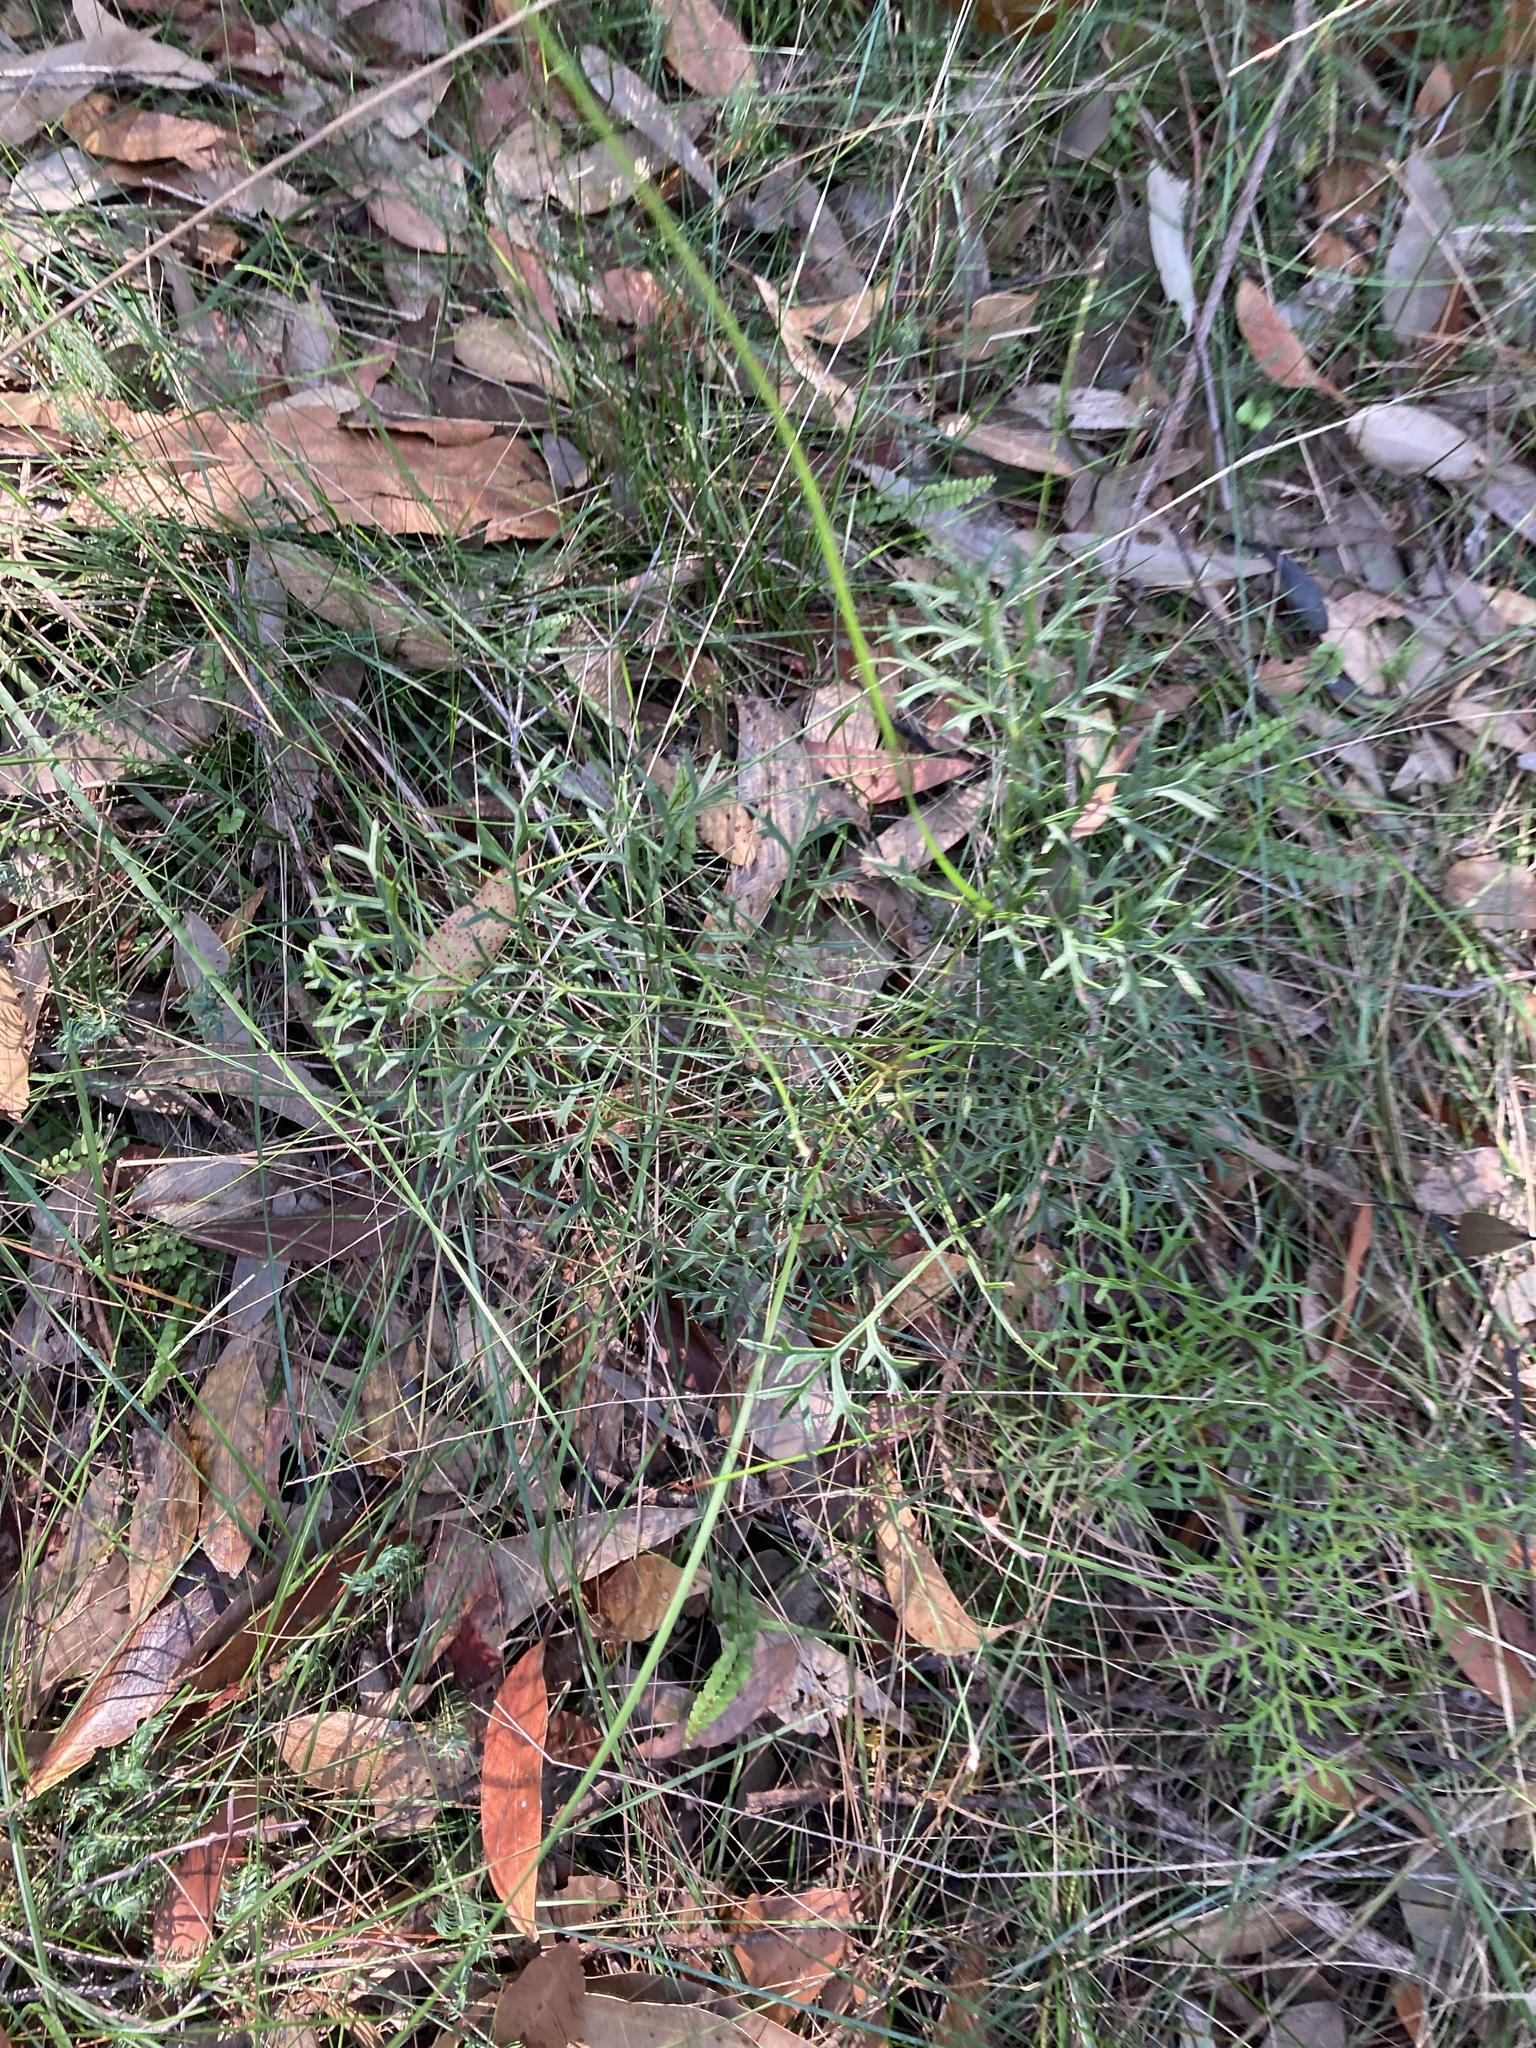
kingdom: Plantae
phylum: Tracheophyta
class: Magnoliopsida
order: Proteales
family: Proteaceae
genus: Lomatia
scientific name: Lomatia silaifolia
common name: Crinklebush
